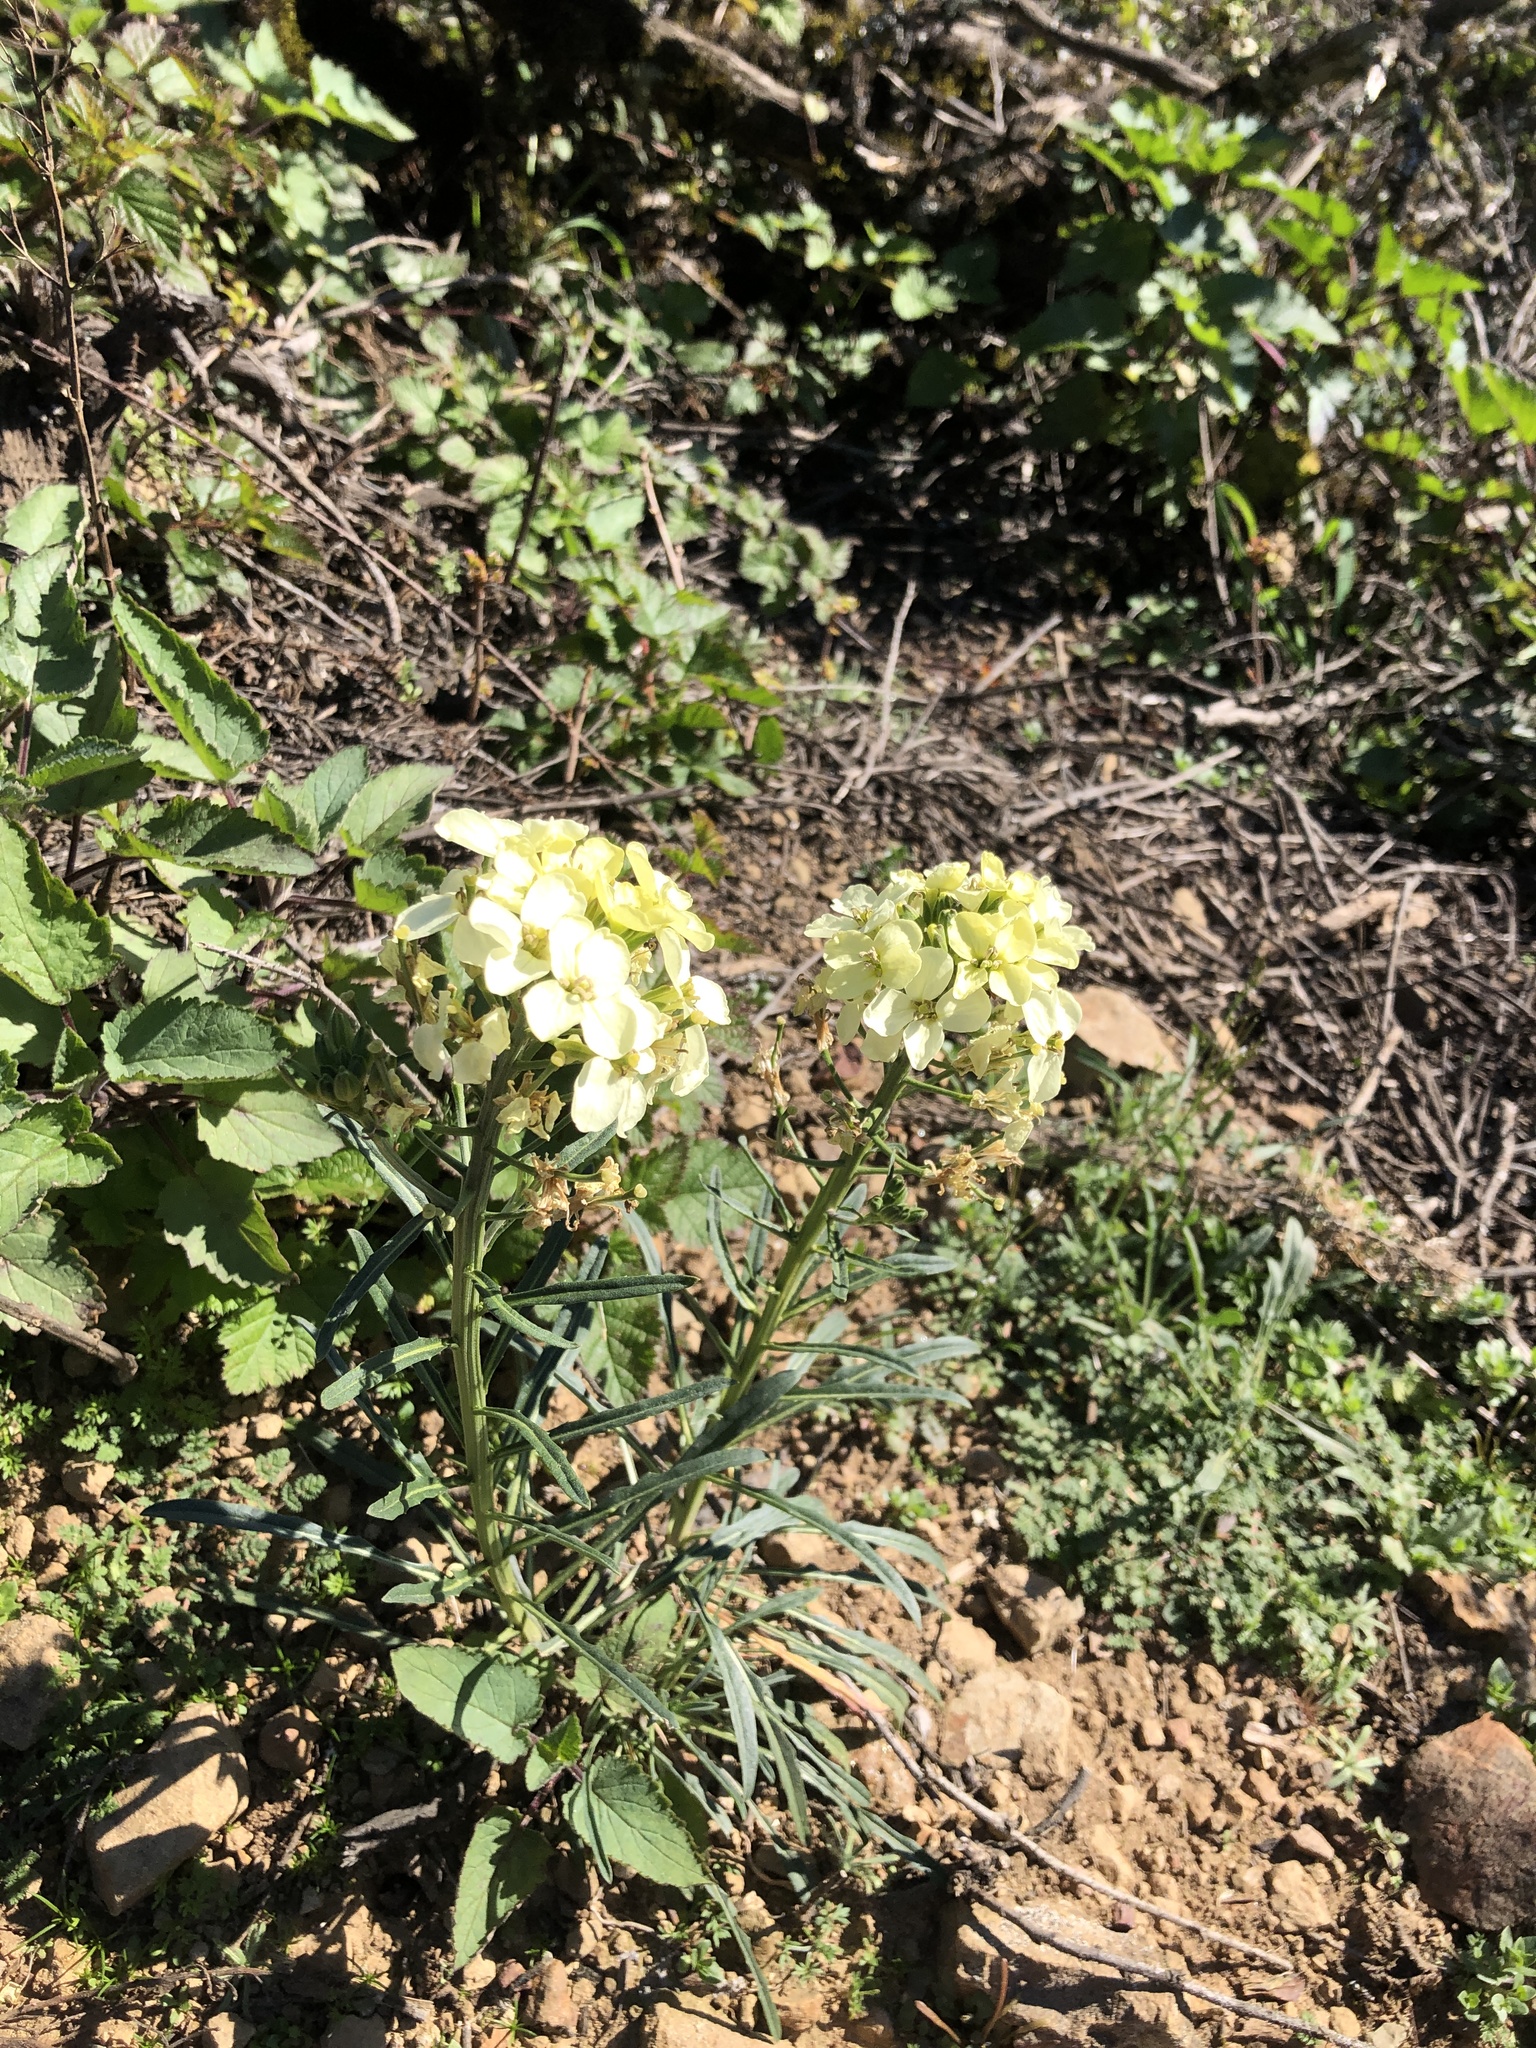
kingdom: Plantae
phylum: Tracheophyta
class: Magnoliopsida
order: Brassicales
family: Brassicaceae
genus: Erysimum
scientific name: Erysimum franciscanum
